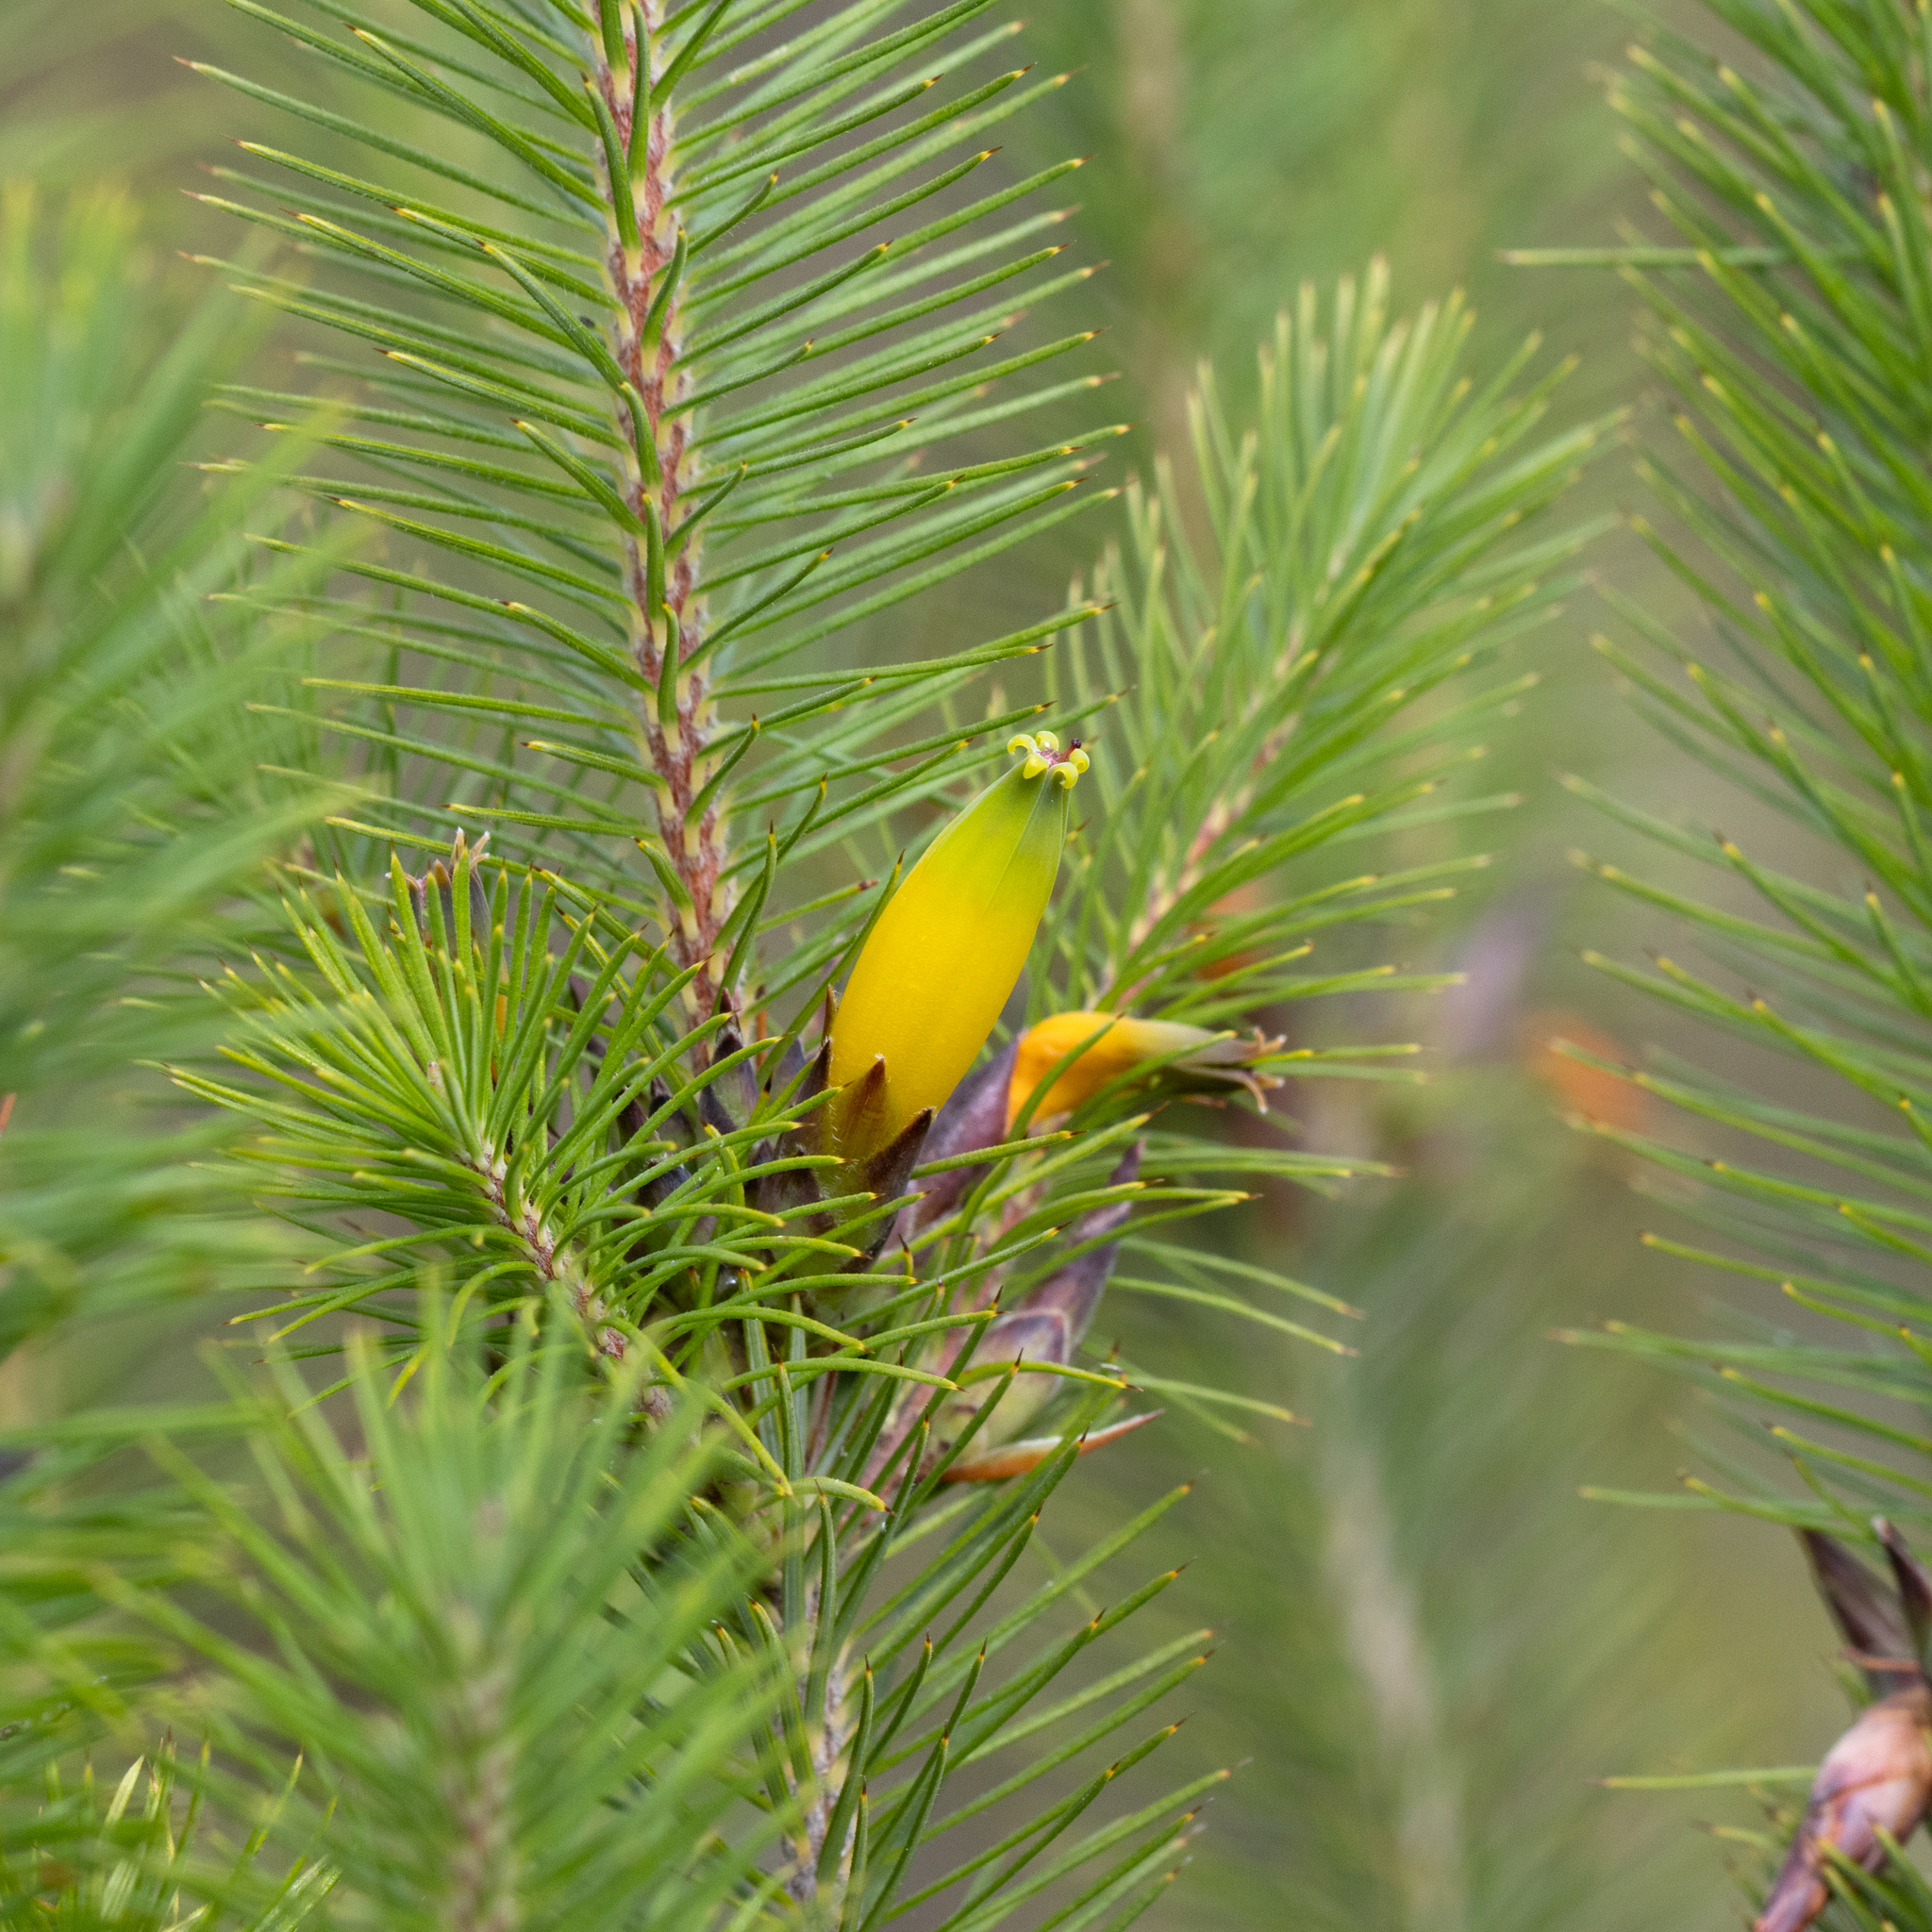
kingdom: Plantae
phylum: Tracheophyta
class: Magnoliopsida
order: Ericales
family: Ericaceae
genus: Stenanthera
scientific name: Stenanthera pinifolia
